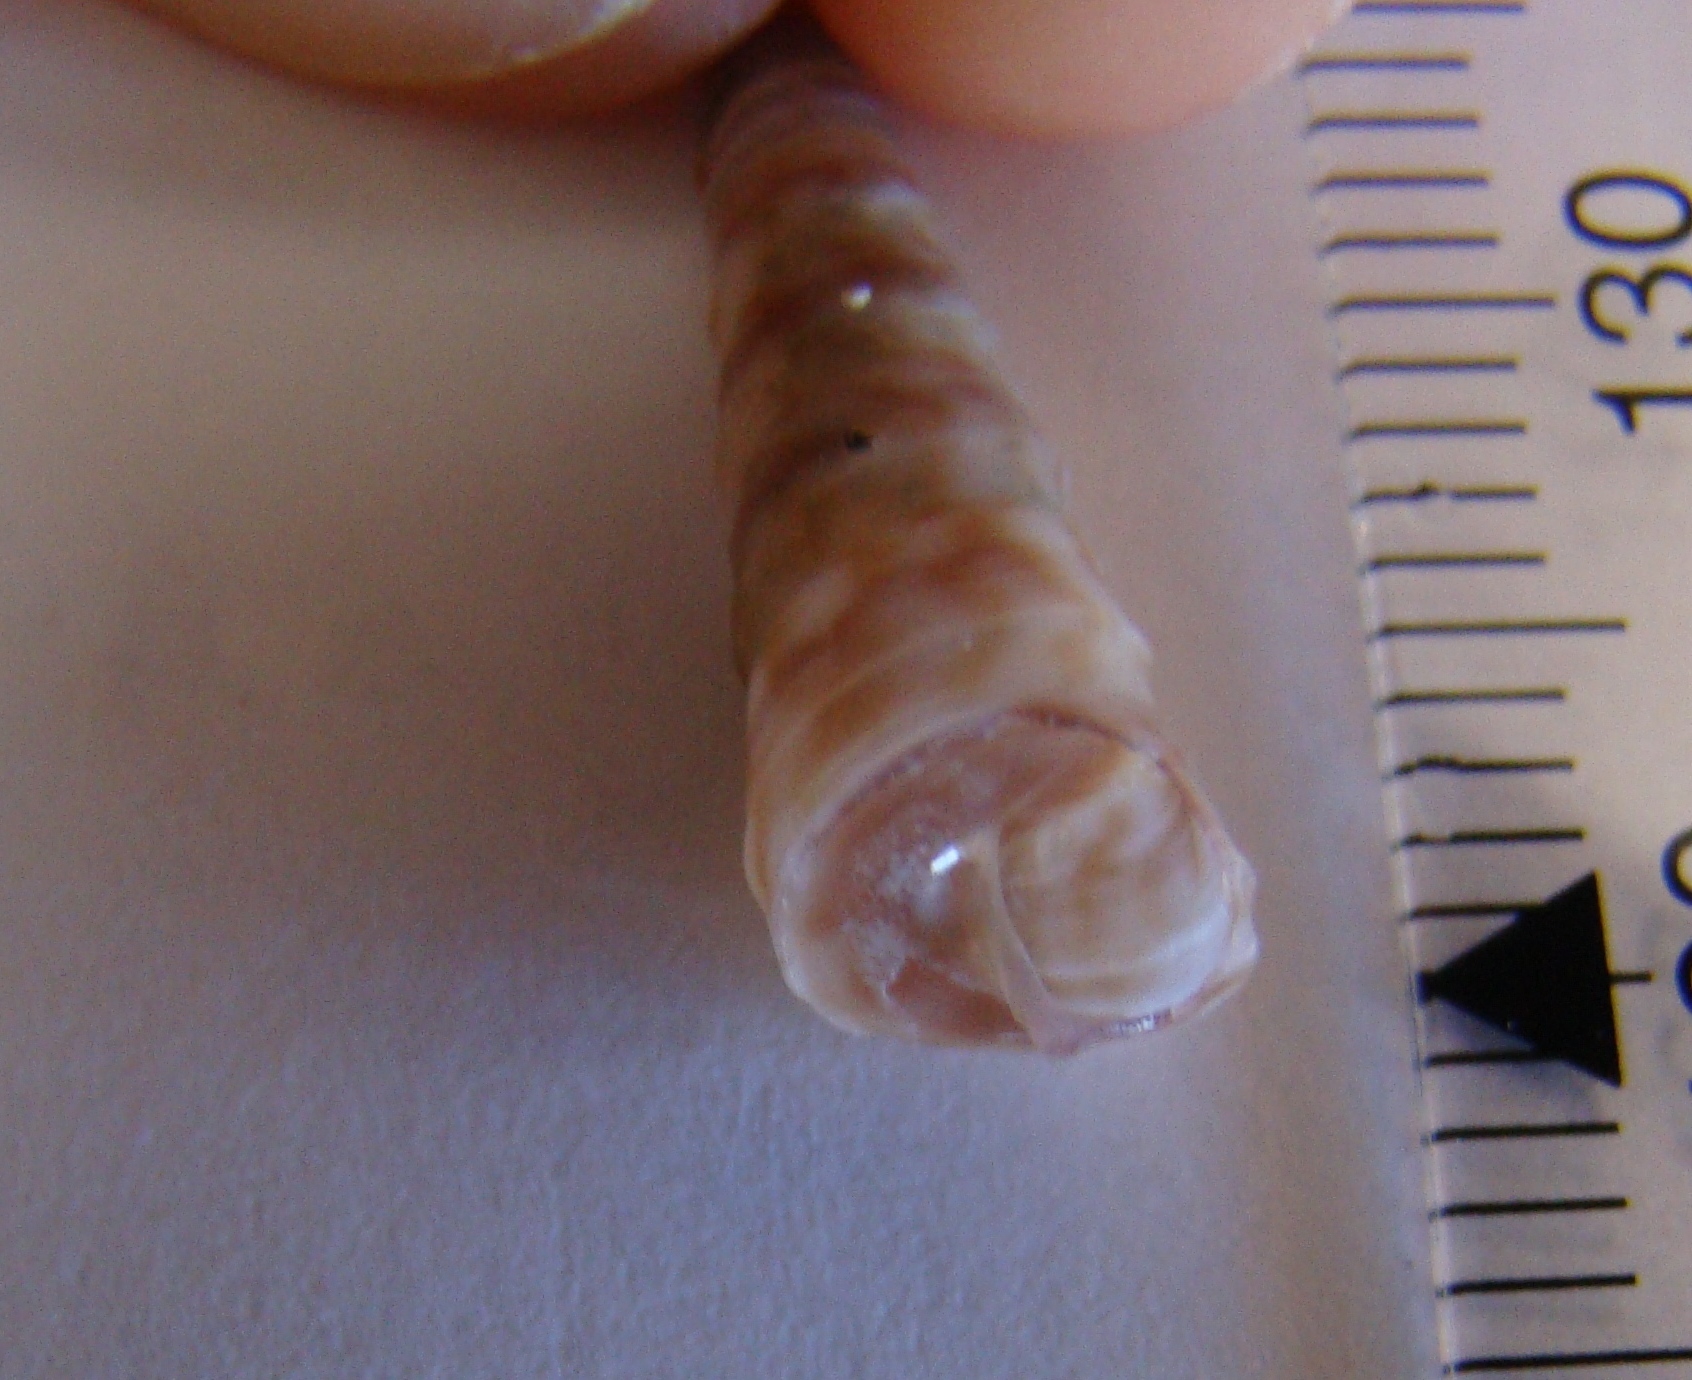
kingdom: Animalia
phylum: Mollusca
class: Gastropoda
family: Turritellidae
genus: Stiracolpus
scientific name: Stiracolpus pagoda
